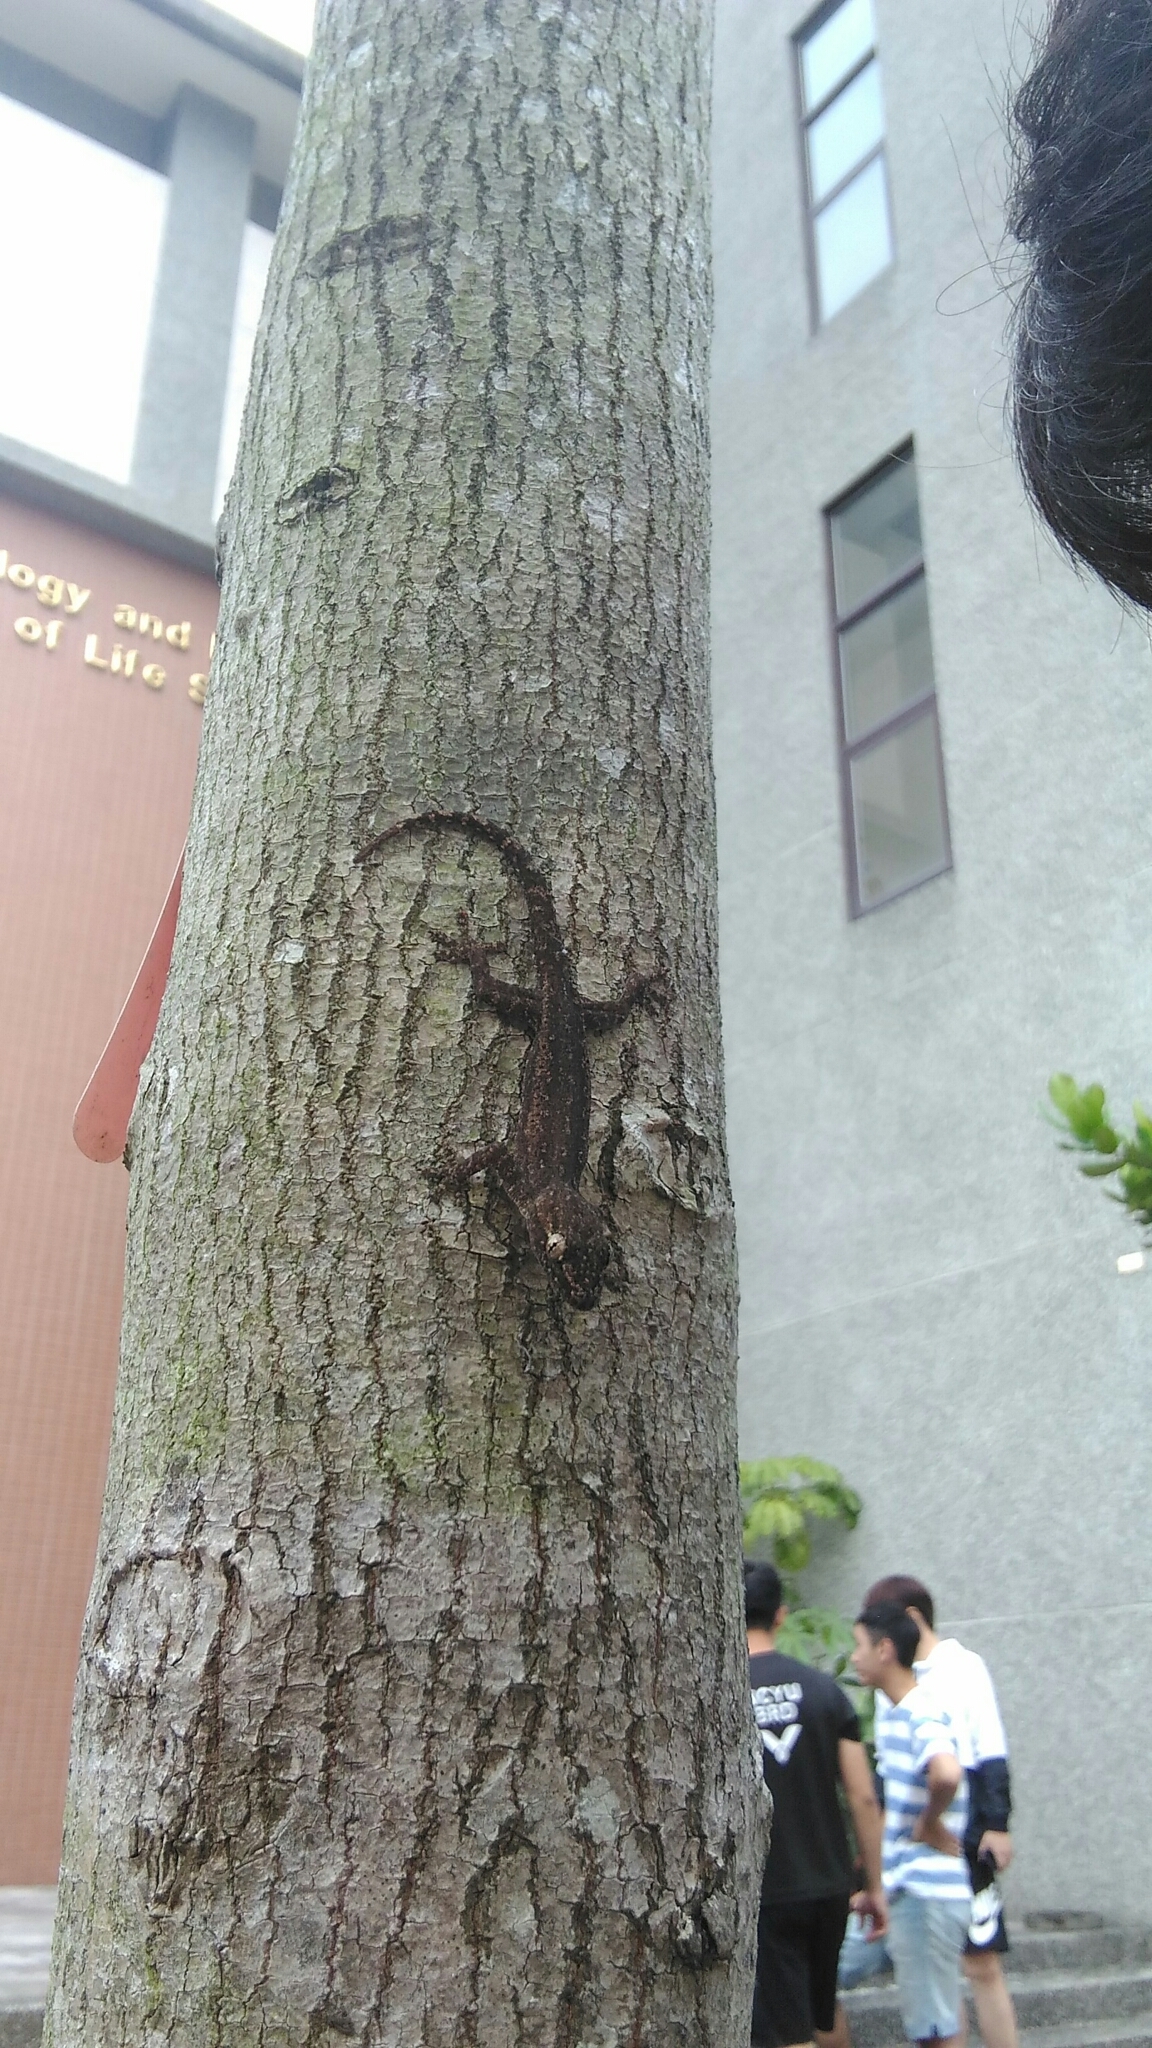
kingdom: Animalia
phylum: Chordata
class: Squamata
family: Gekkonidae
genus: Hemidactylus
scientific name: Hemidactylus frenatus
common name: Common house gecko
